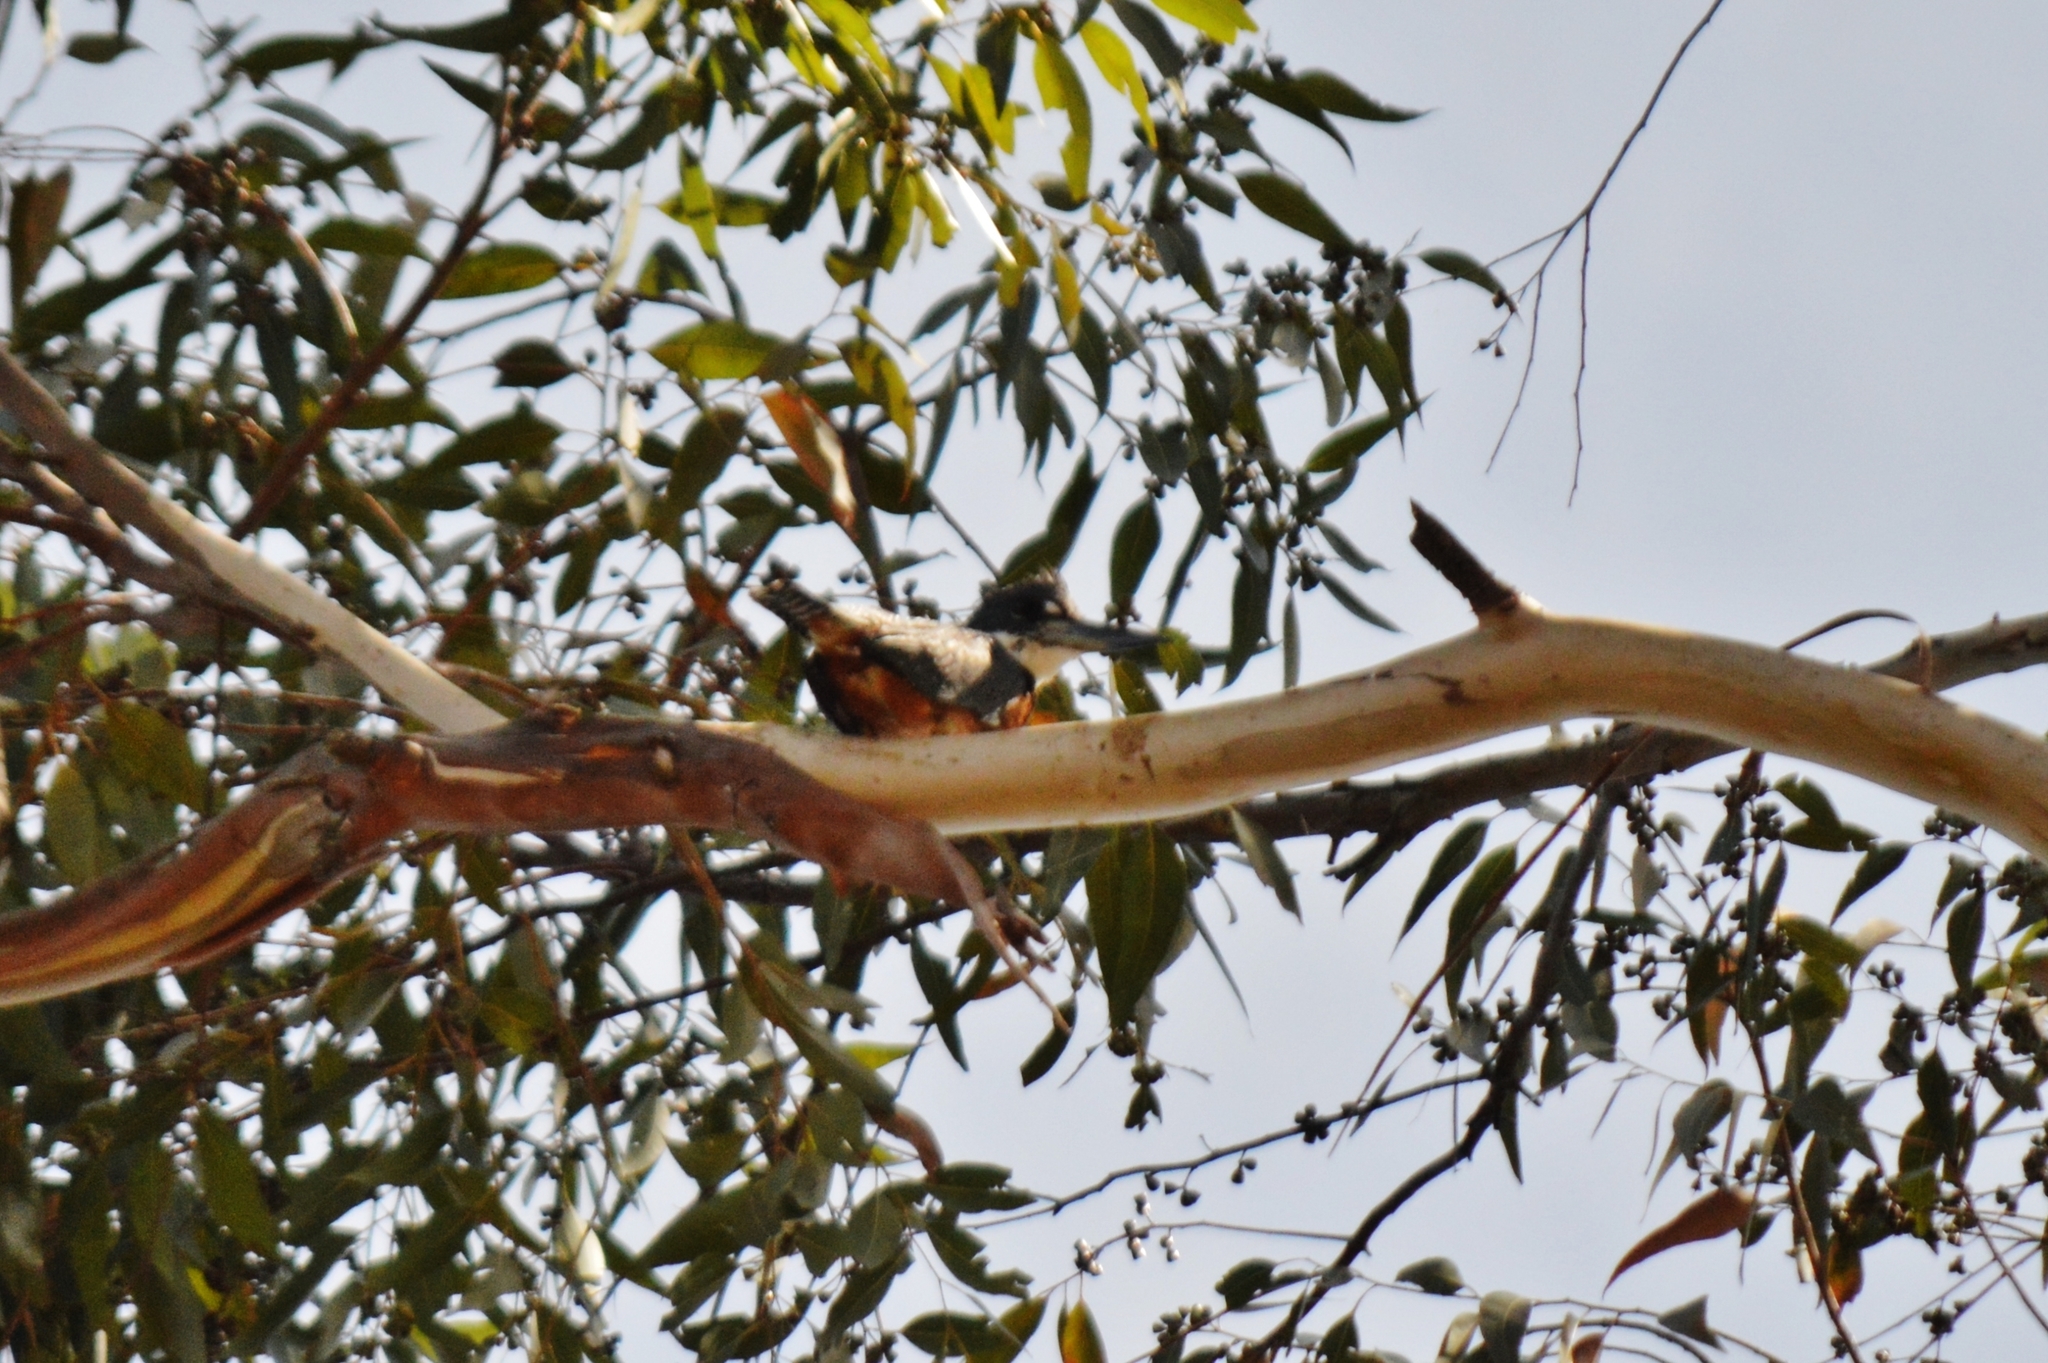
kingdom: Animalia
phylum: Chordata
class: Aves
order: Coraciiformes
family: Alcedinidae
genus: Megaceryle
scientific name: Megaceryle torquata
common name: Ringed kingfisher
